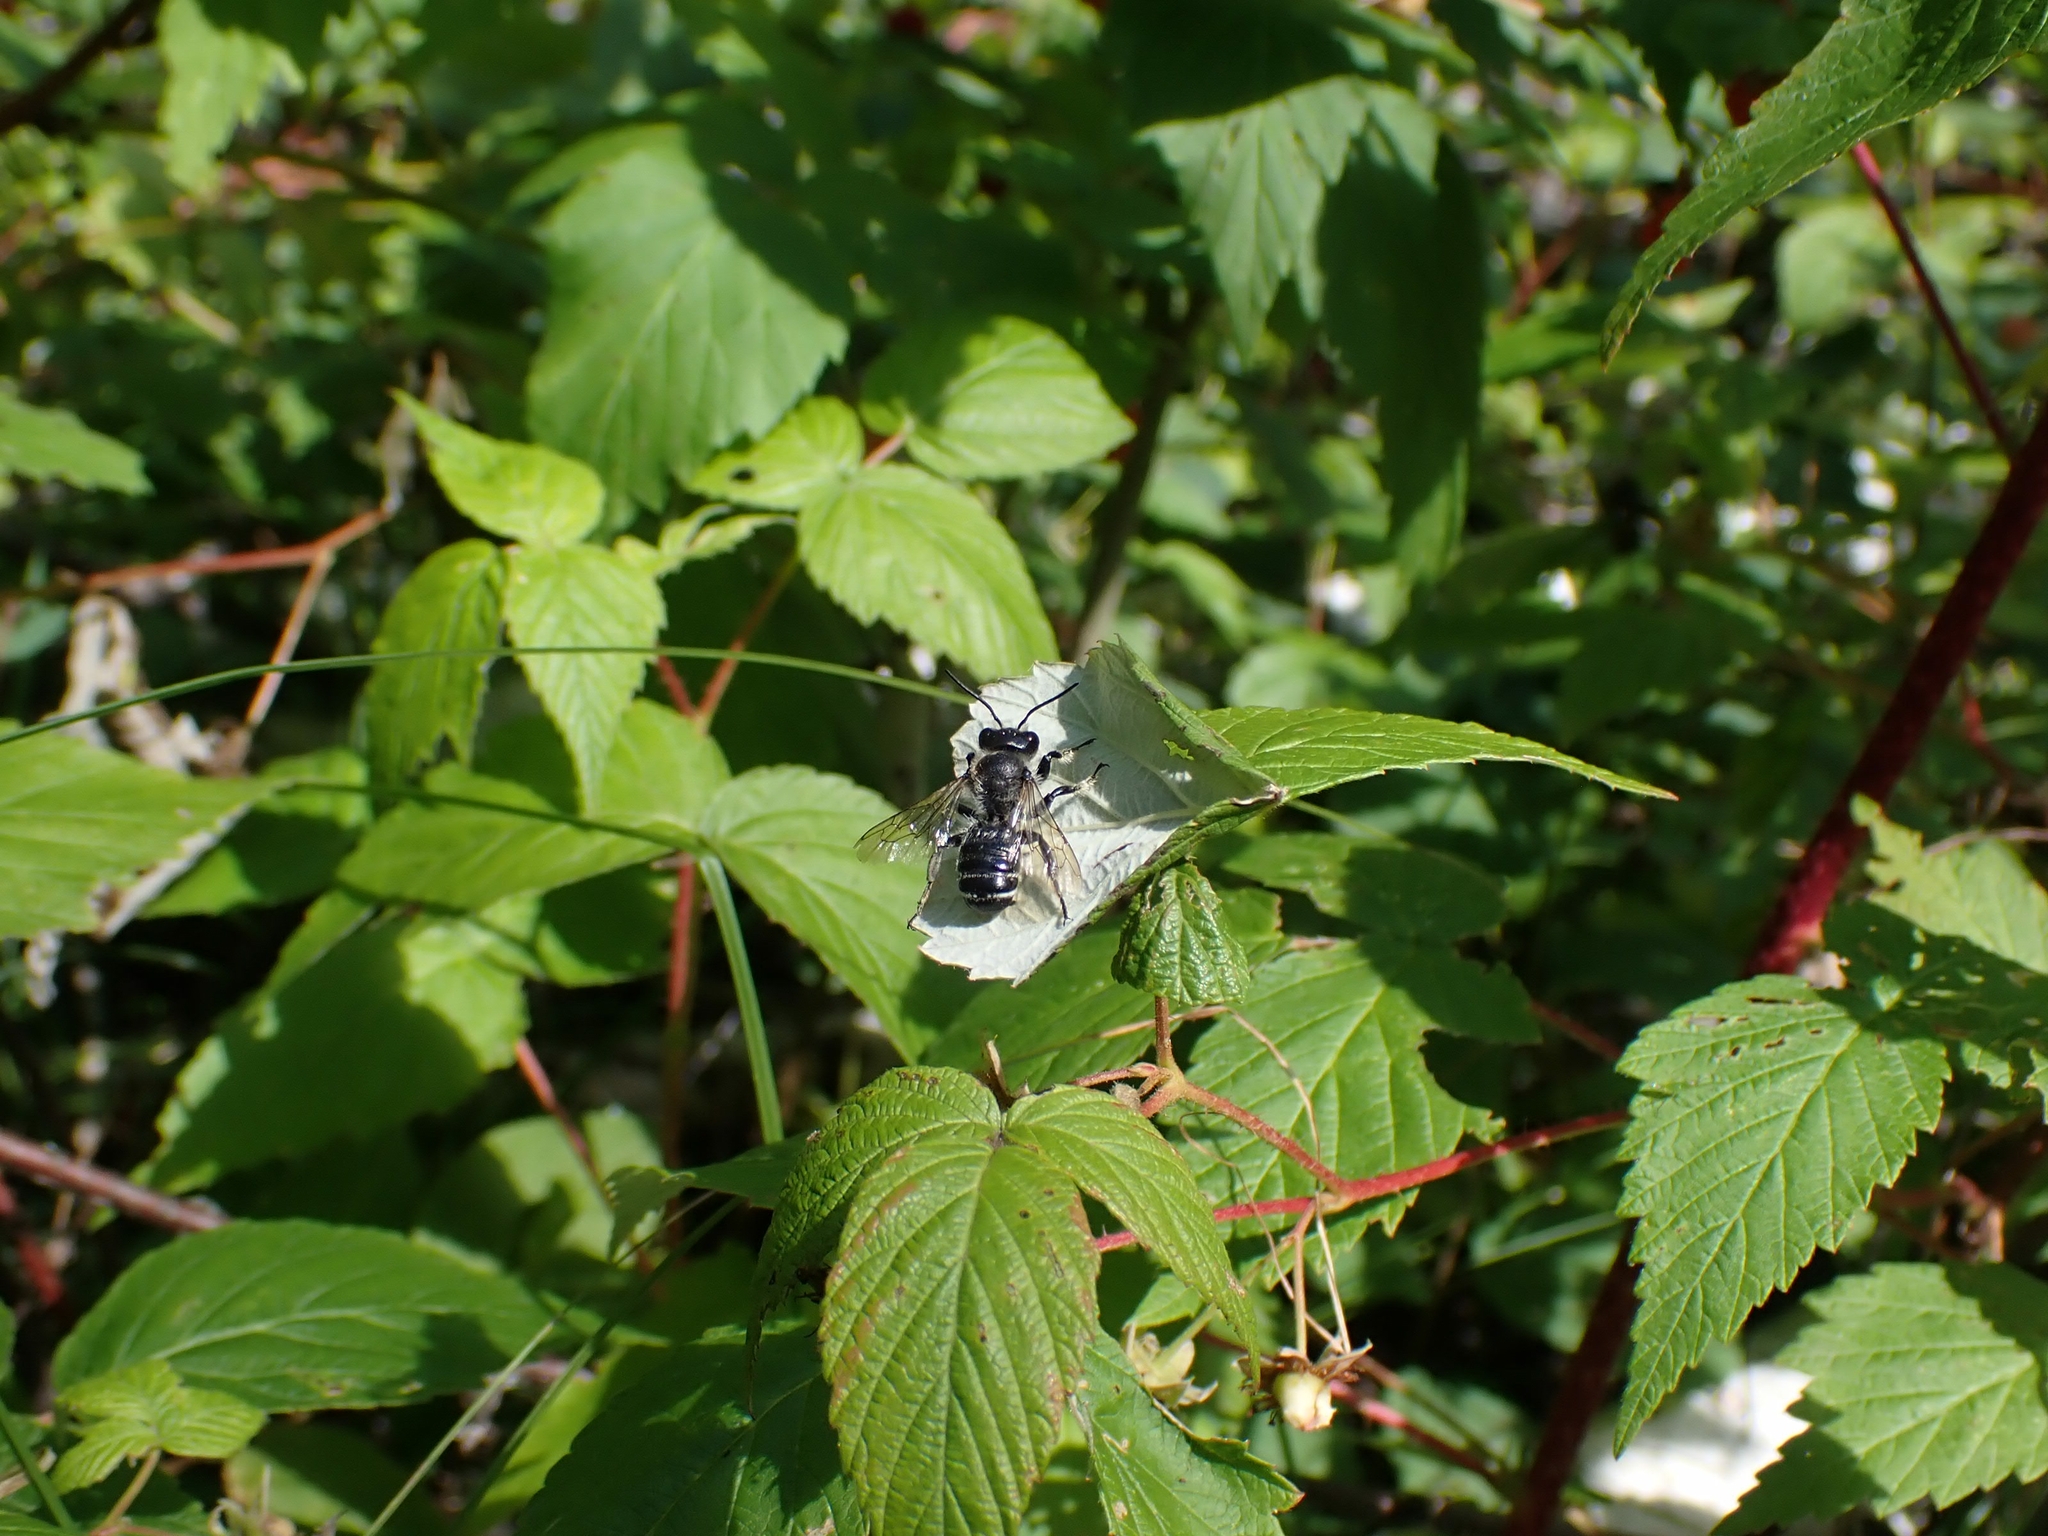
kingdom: Plantae
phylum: Tracheophyta
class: Magnoliopsida
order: Rosales
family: Rosaceae
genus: Rubus
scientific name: Rubus idaeus
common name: Raspberry
